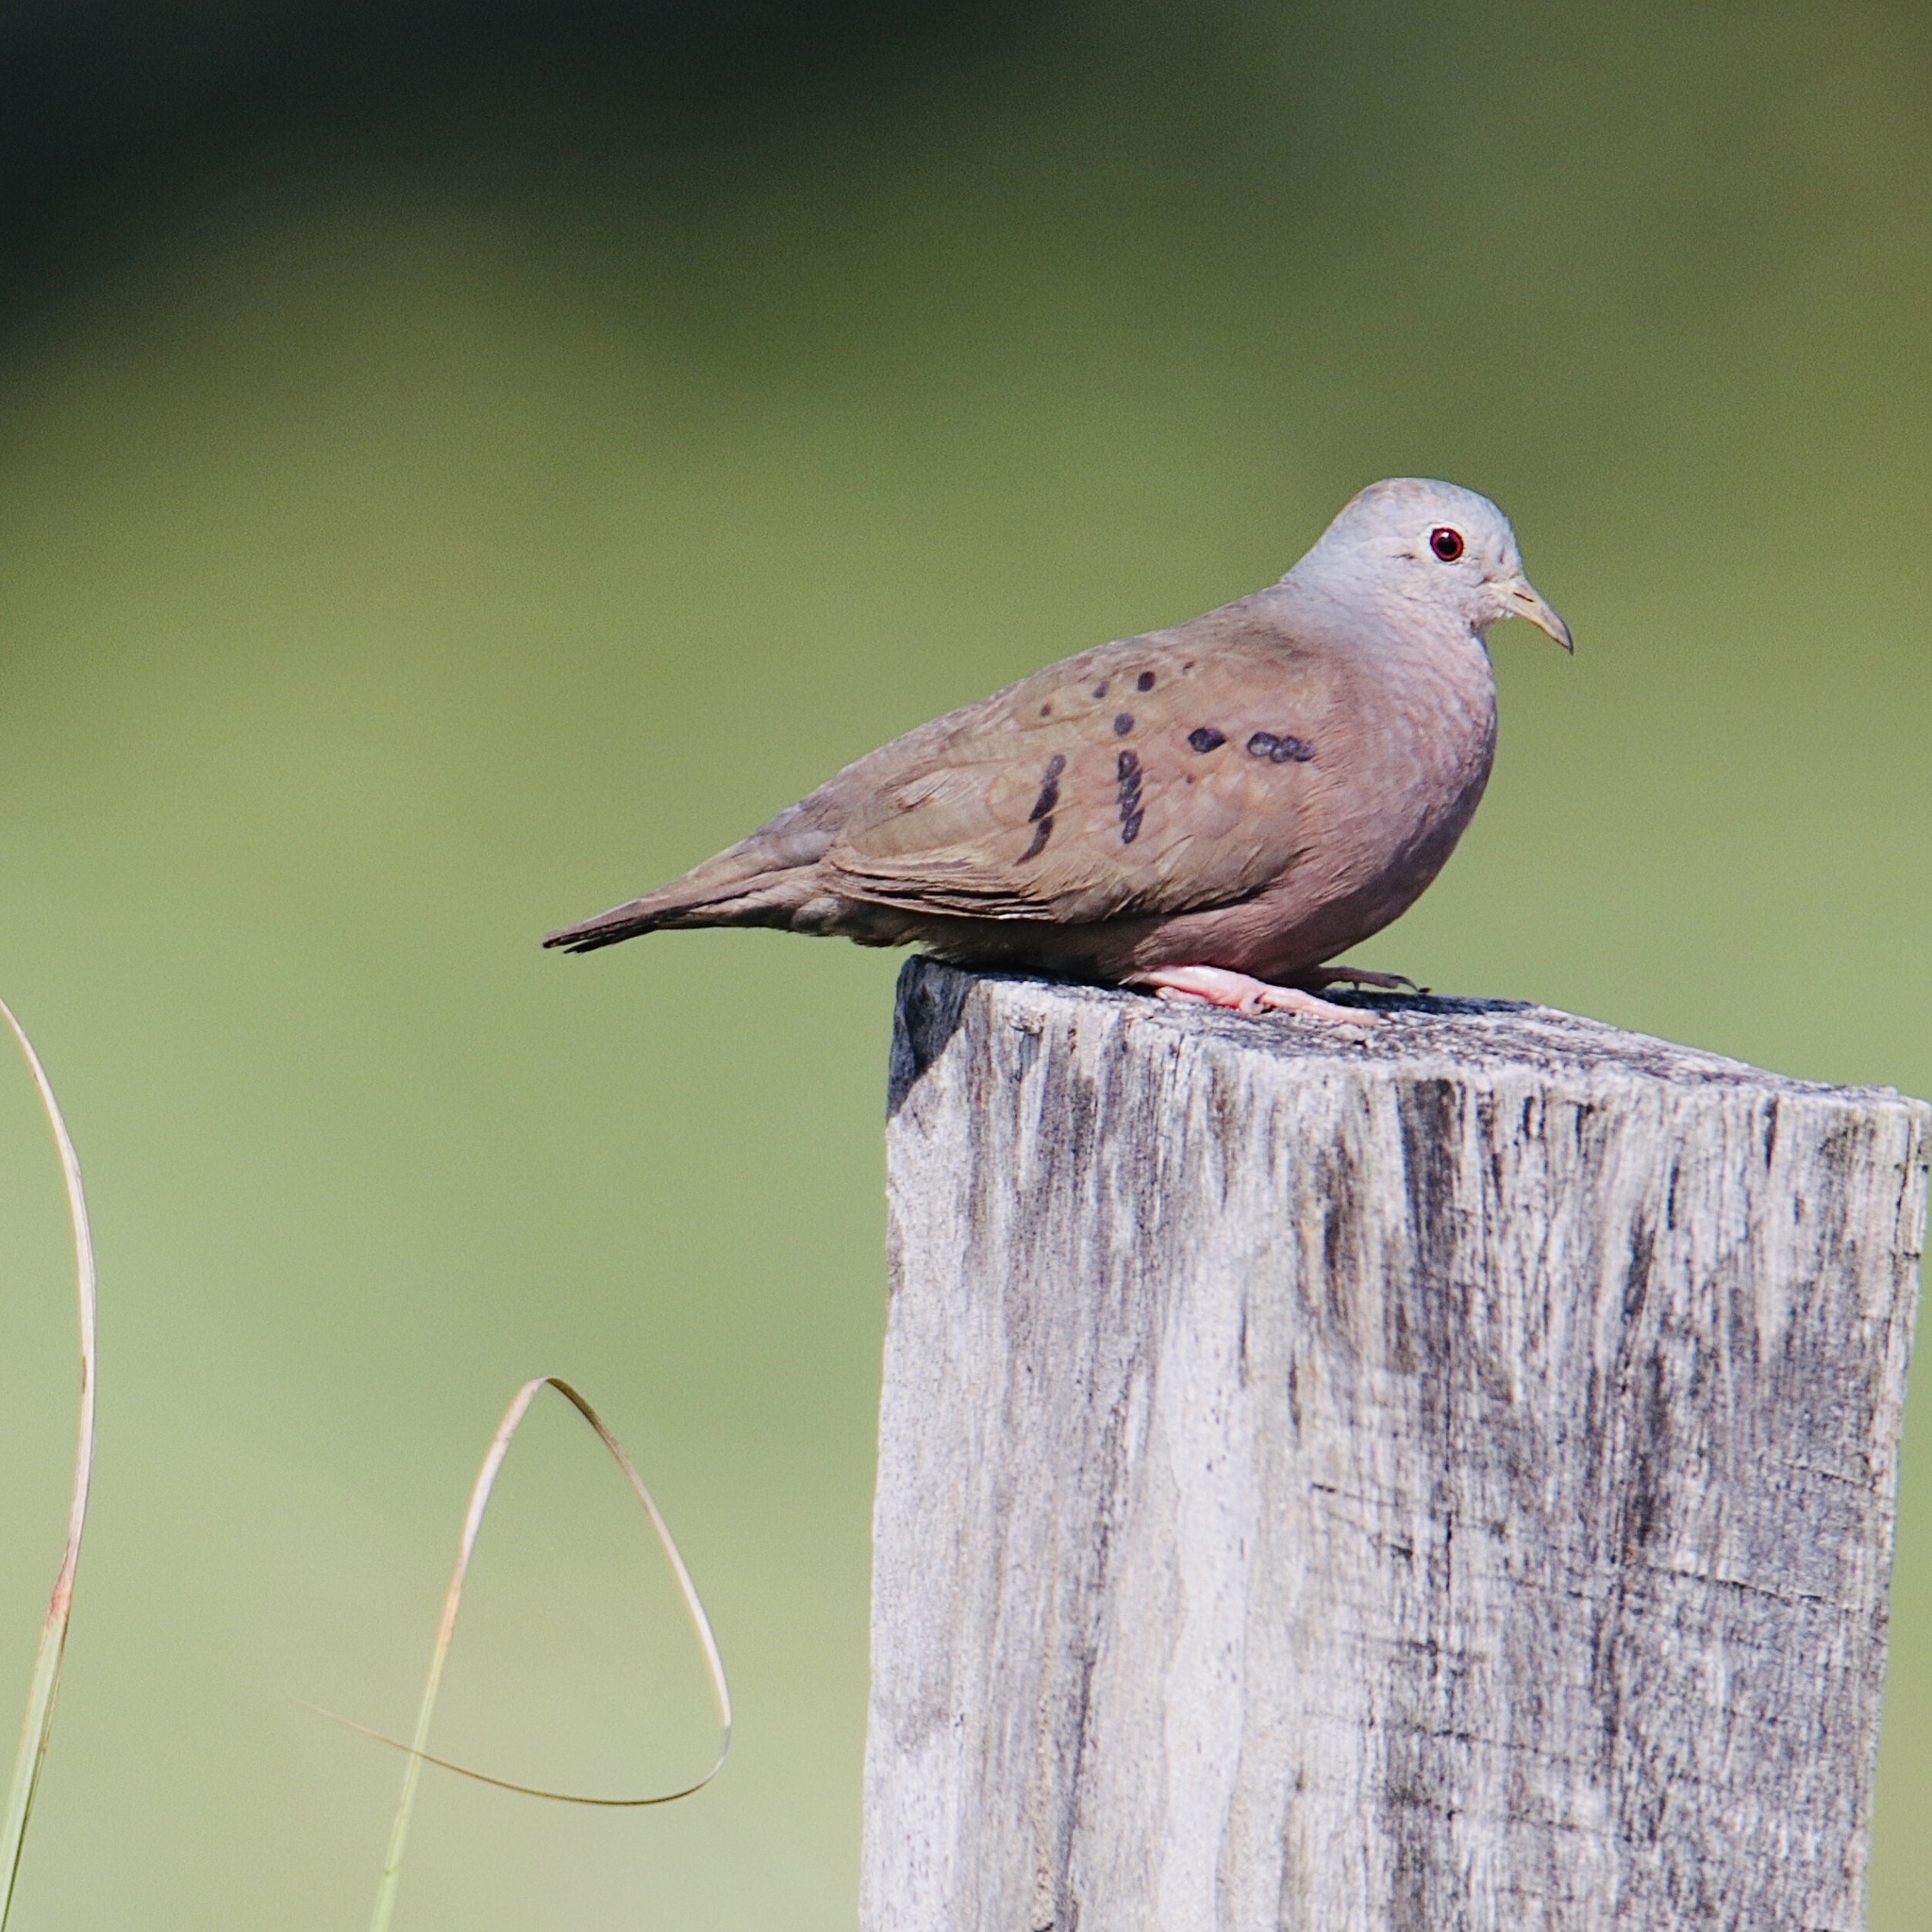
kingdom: Animalia
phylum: Chordata
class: Aves
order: Columbiformes
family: Columbidae
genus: Columbina
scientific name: Columbina talpacoti
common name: Ruddy ground dove
